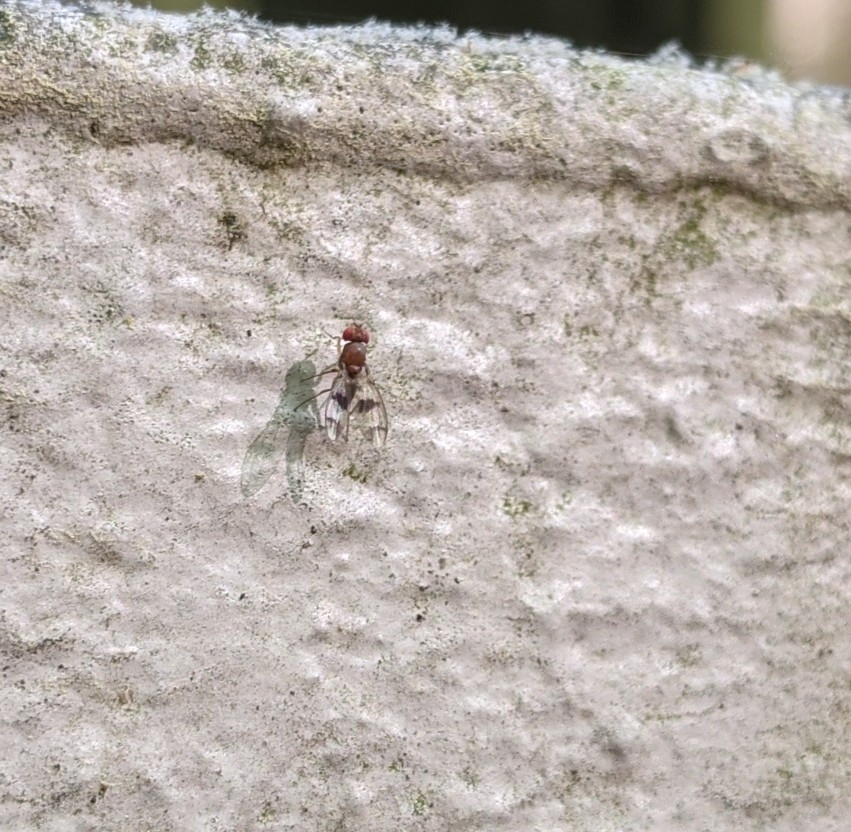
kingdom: Animalia
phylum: Arthropoda
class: Insecta
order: Diptera
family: Drosophilidae
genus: Chymomyza
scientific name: Chymomyza amoena
